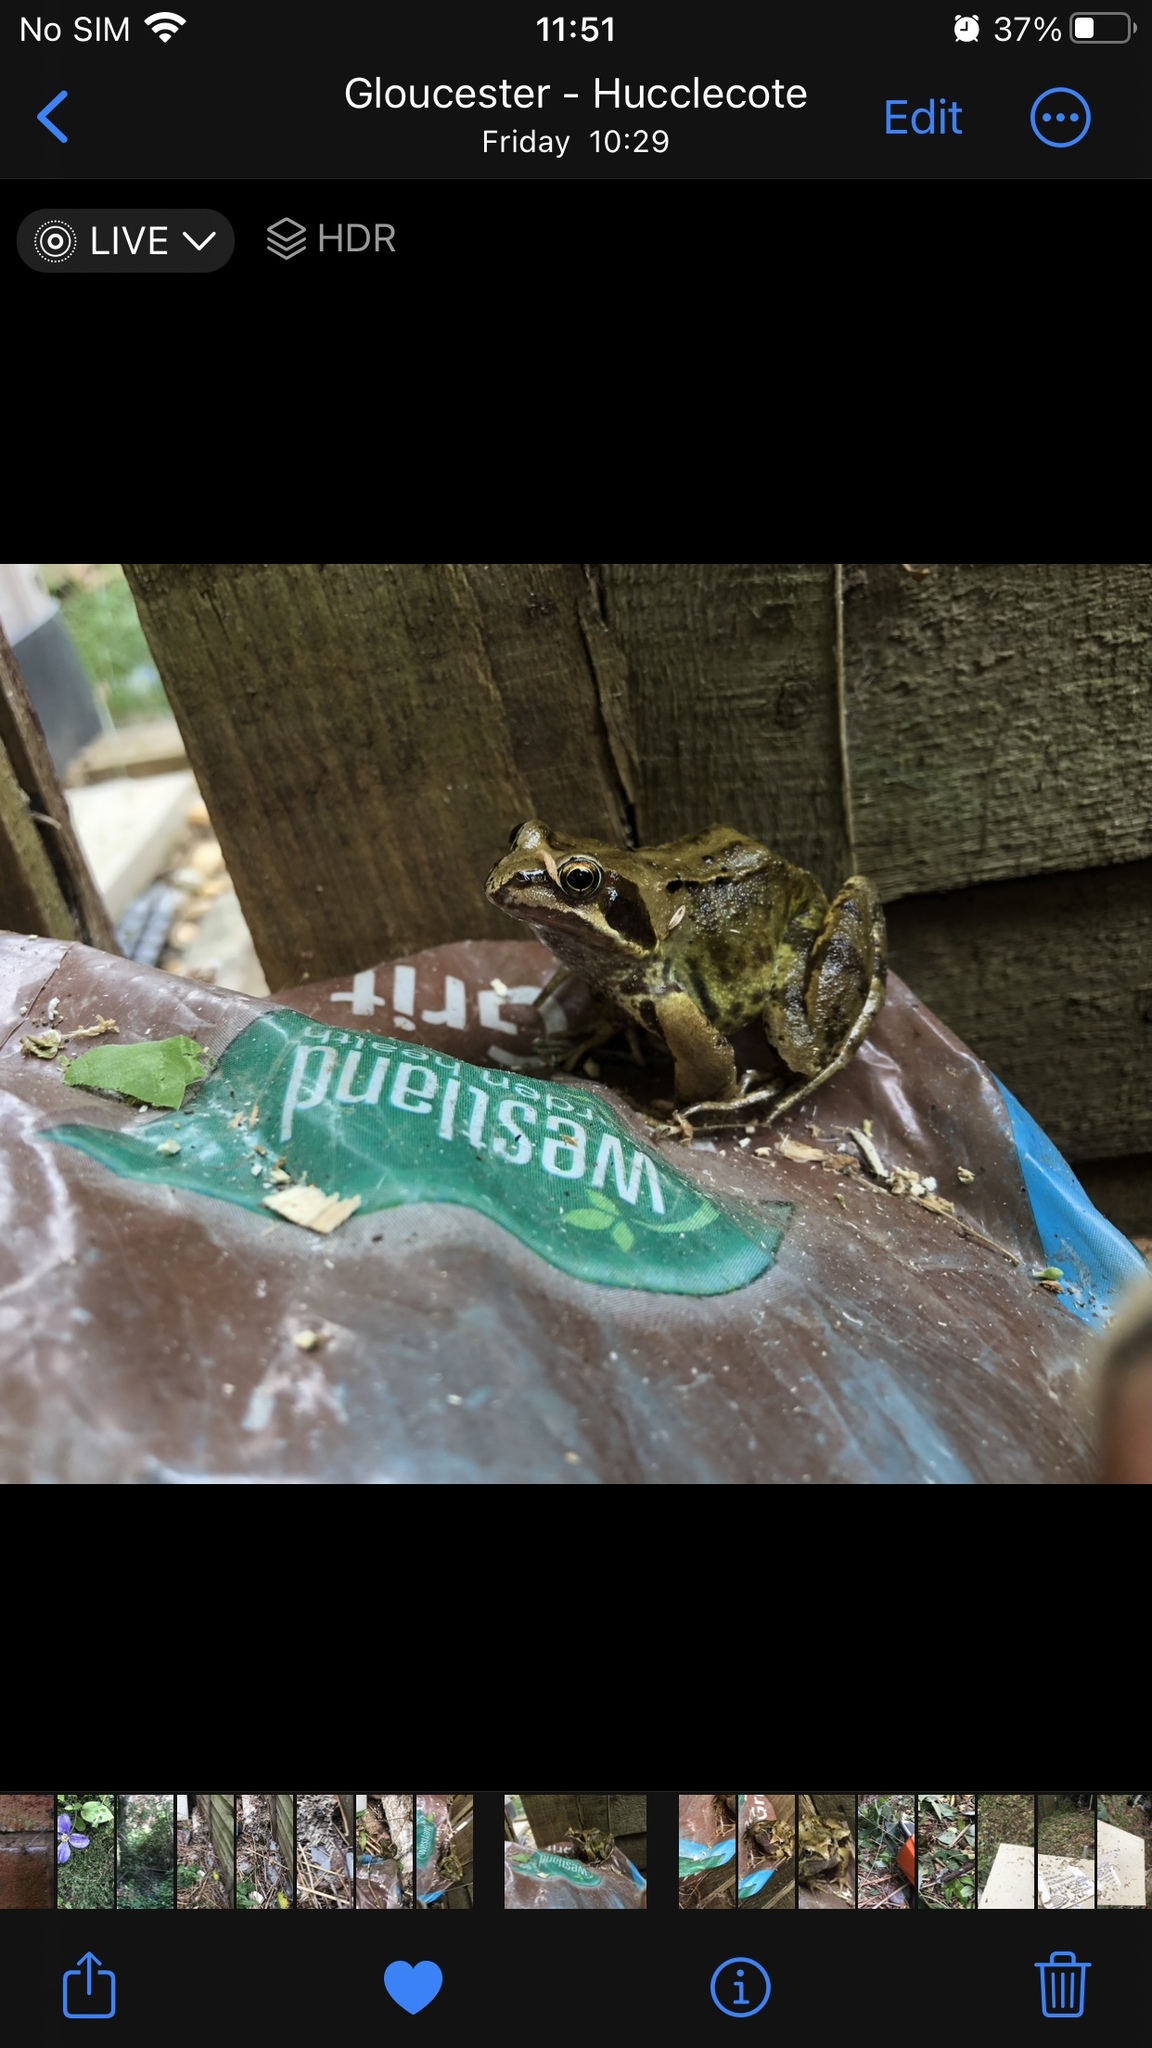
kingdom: Animalia
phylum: Chordata
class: Amphibia
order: Anura
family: Ranidae
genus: Rana
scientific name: Rana temporaria
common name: Common frog
